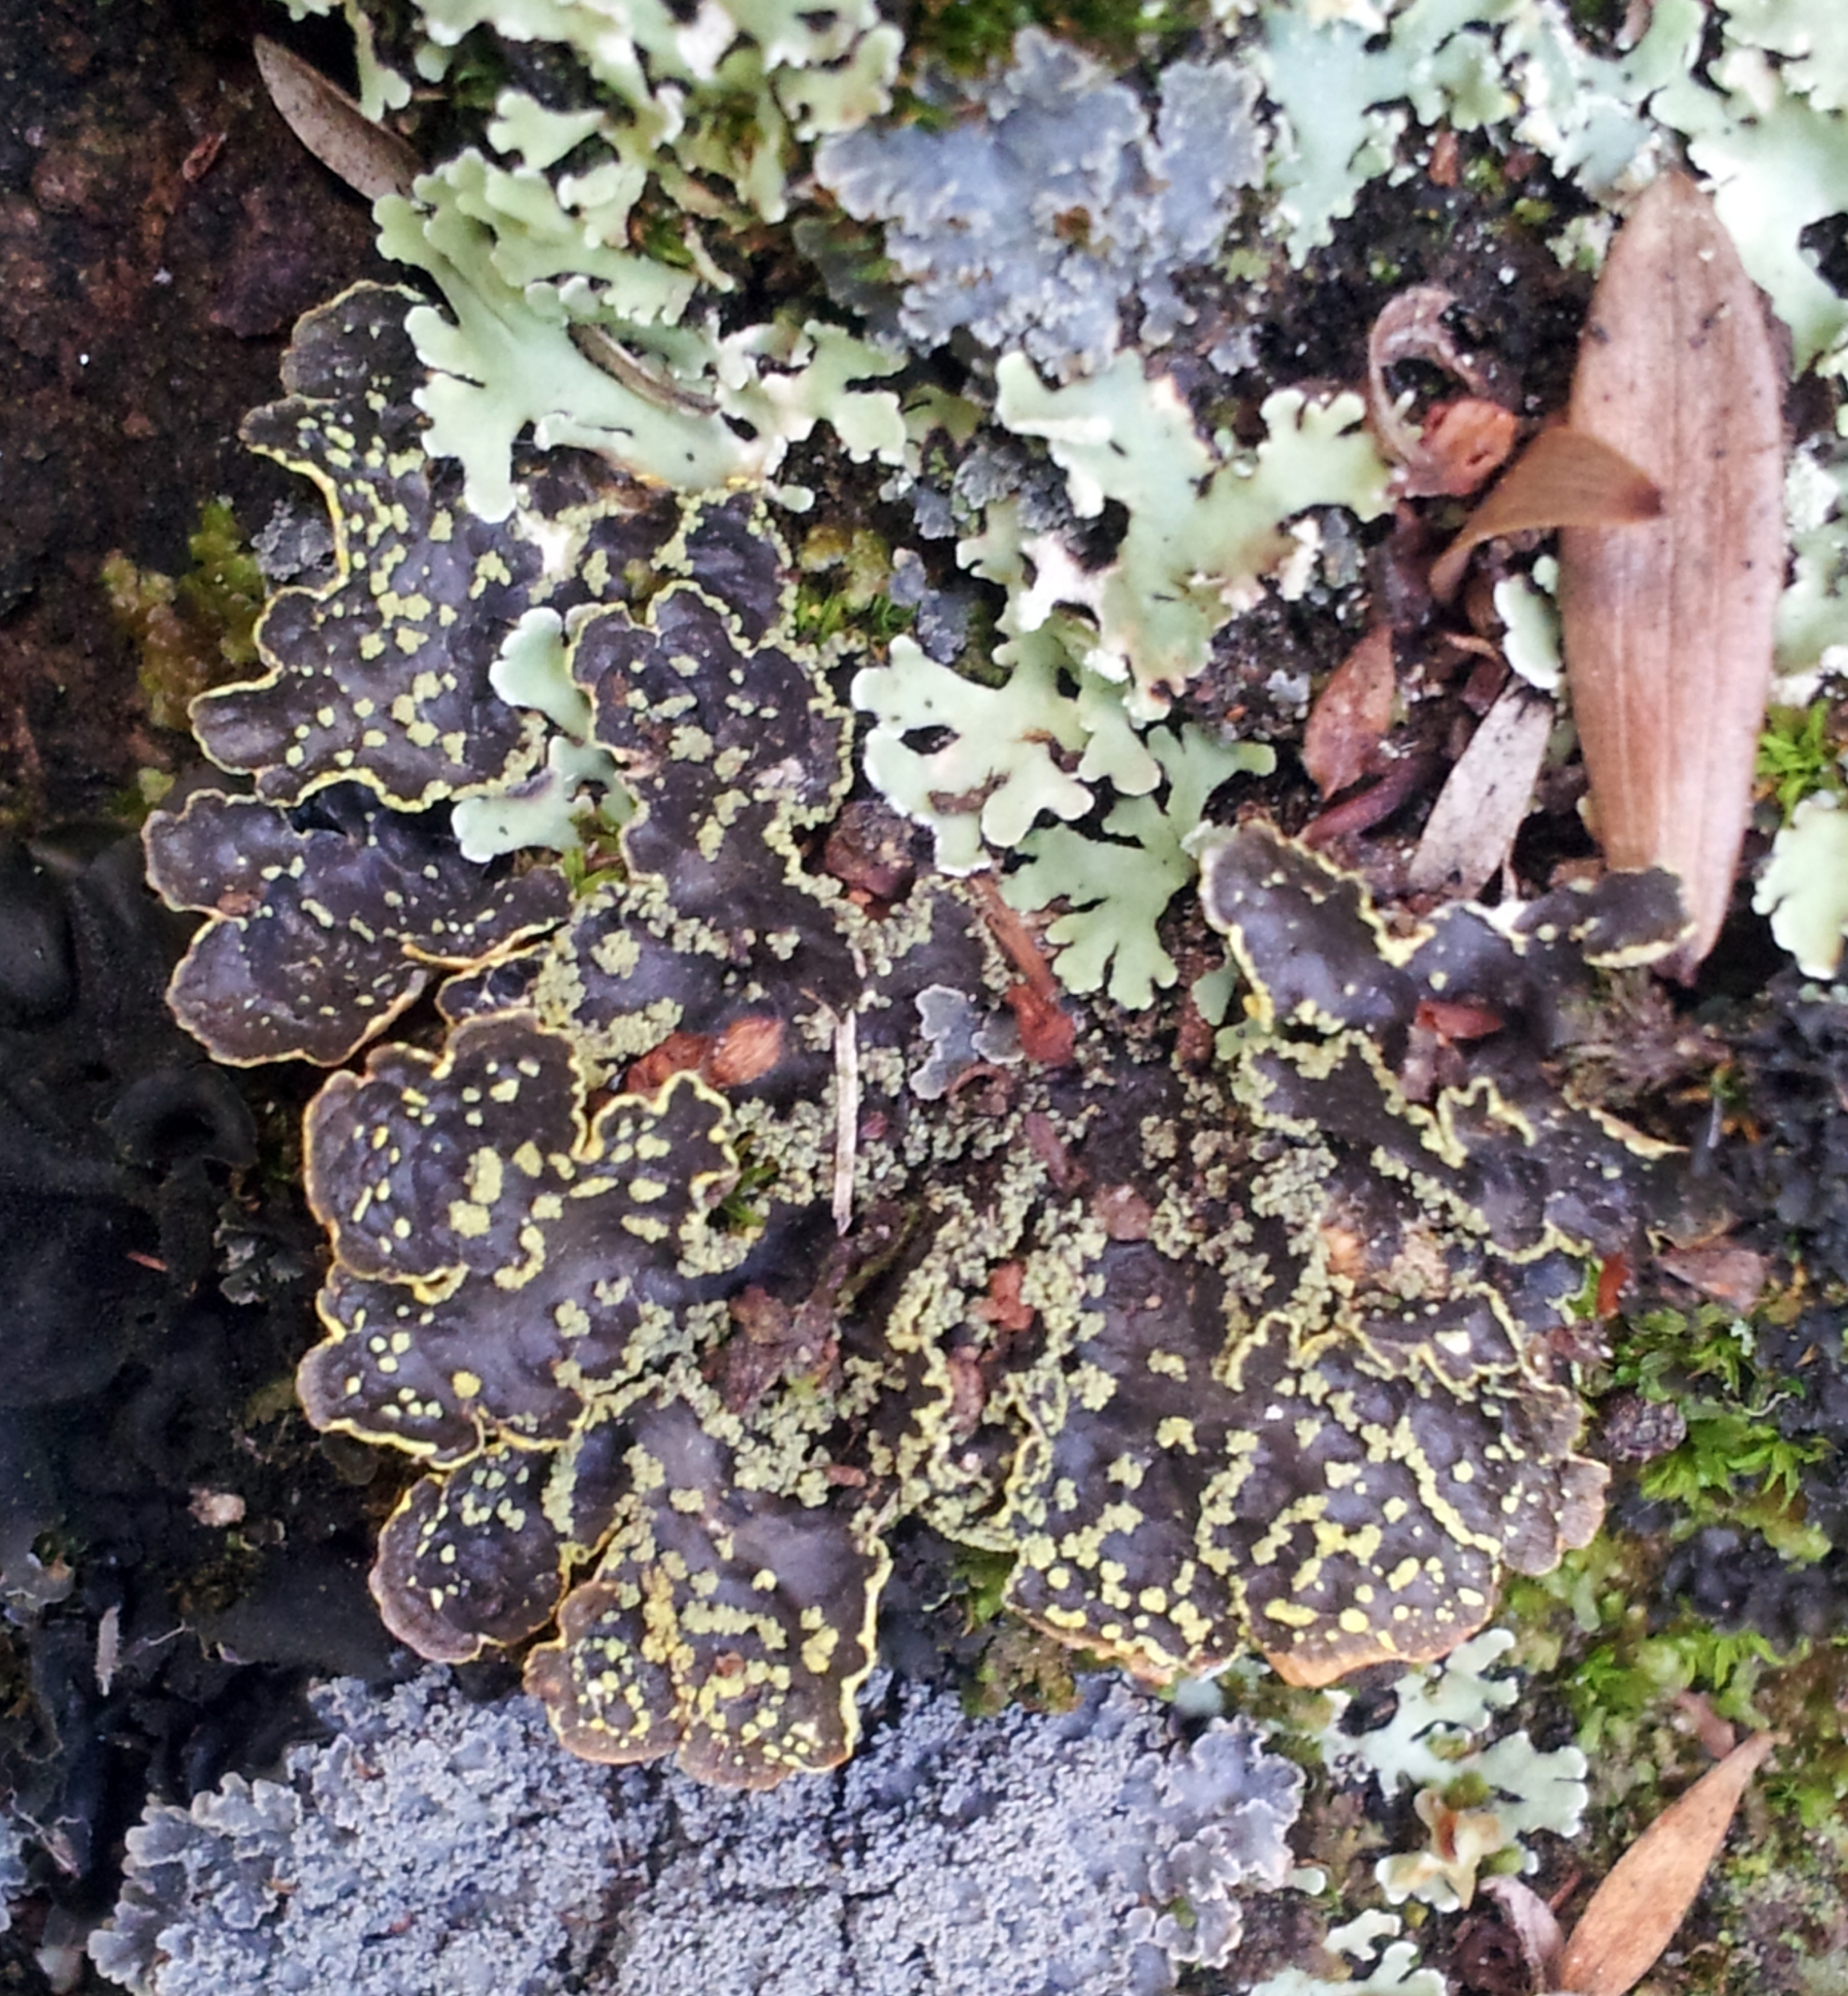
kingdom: Fungi
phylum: Ascomycota
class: Lecanoromycetes
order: Peltigerales
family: Lobariaceae
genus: Pseudocyphellaria
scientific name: Pseudocyphellaria crocata
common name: Golden specklebelly
